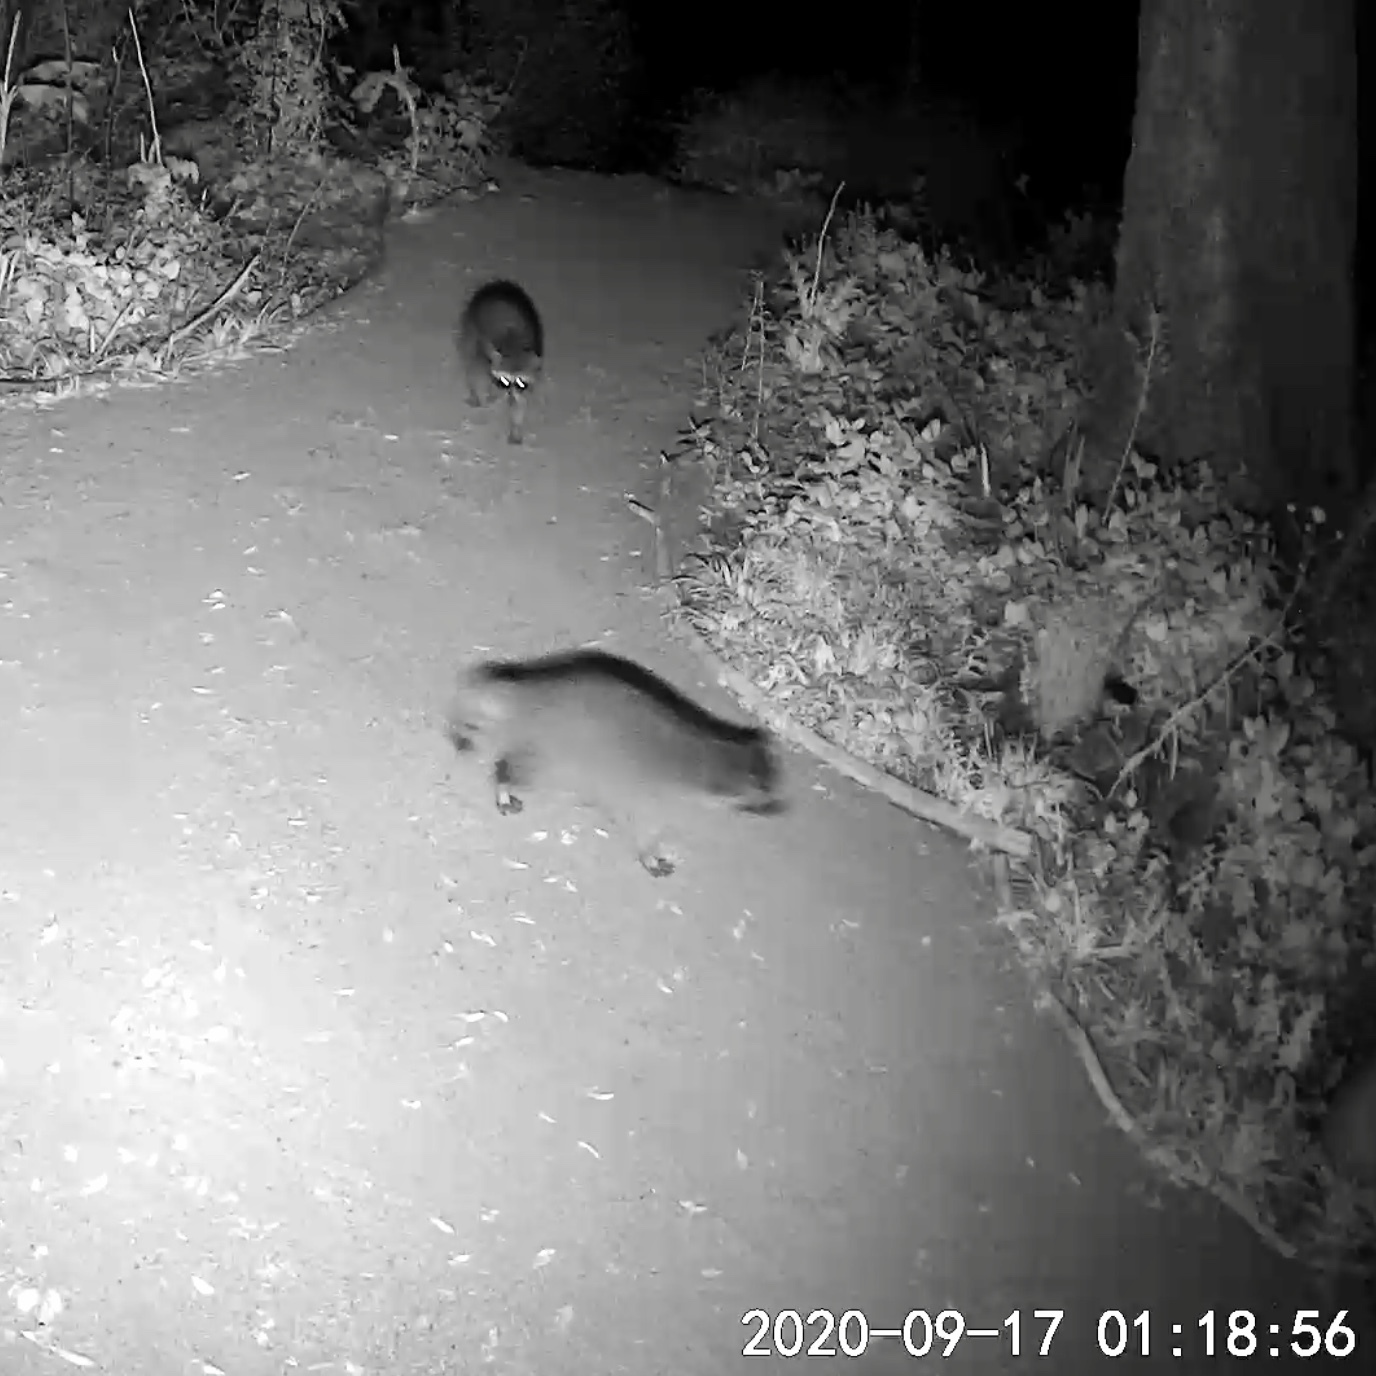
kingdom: Animalia
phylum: Chordata
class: Mammalia
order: Carnivora
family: Procyonidae
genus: Procyon
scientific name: Procyon lotor
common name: Raccoon
